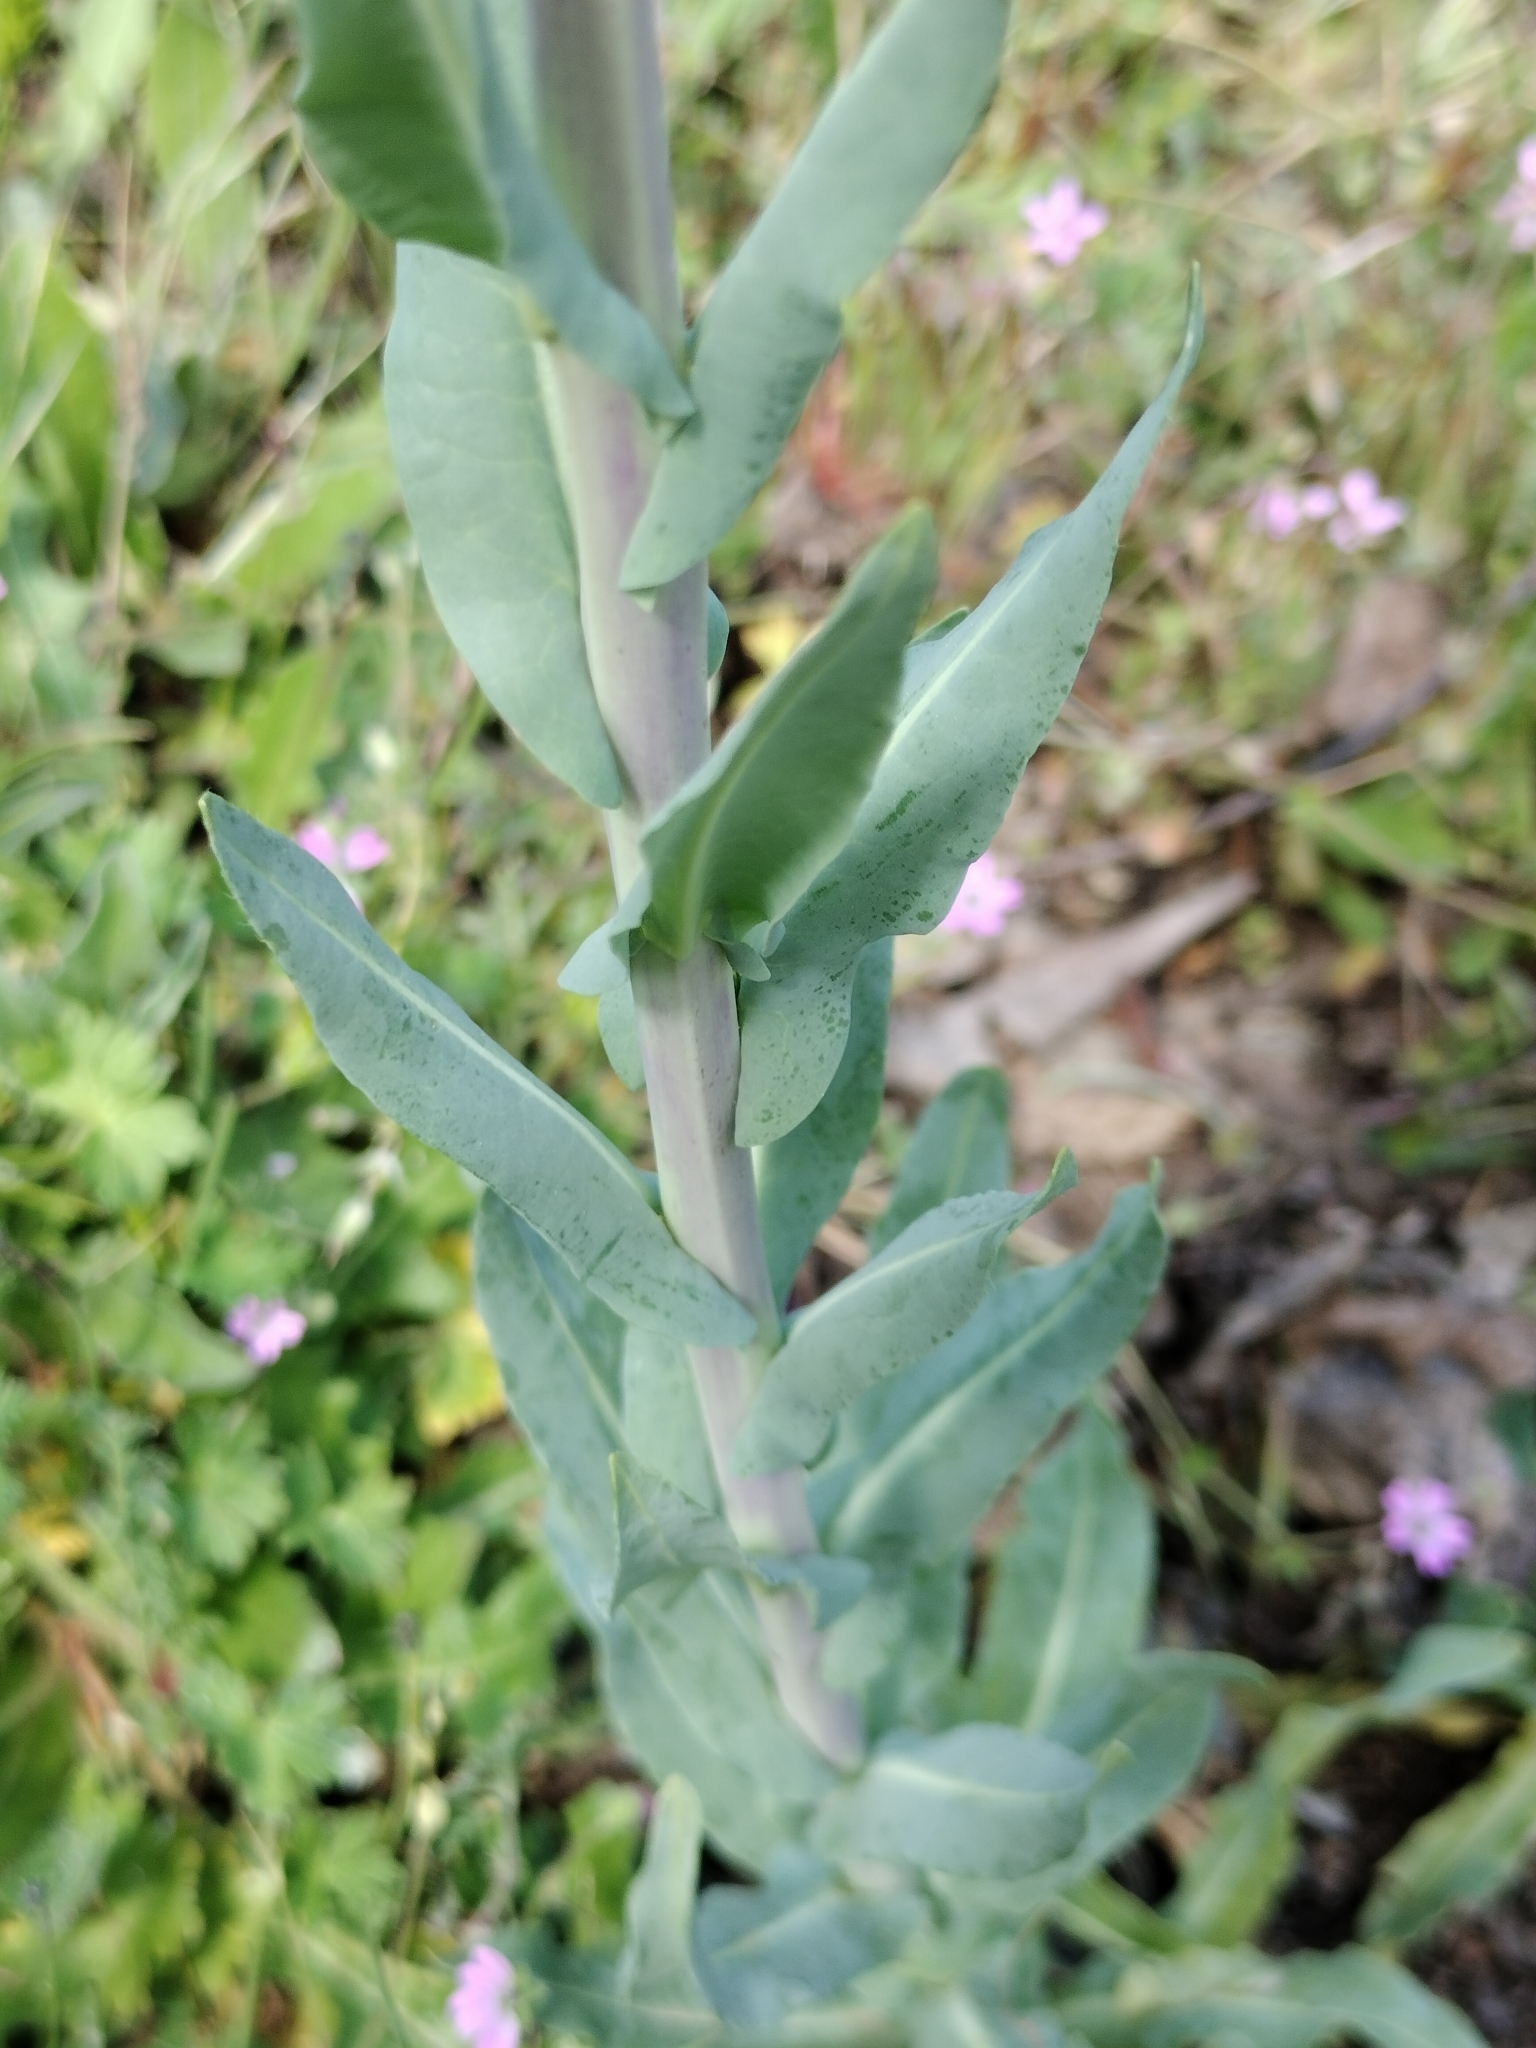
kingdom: Plantae
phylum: Tracheophyta
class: Magnoliopsida
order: Brassicales
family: Brassicaceae
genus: Isatis
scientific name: Isatis tinctoria
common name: Woad
